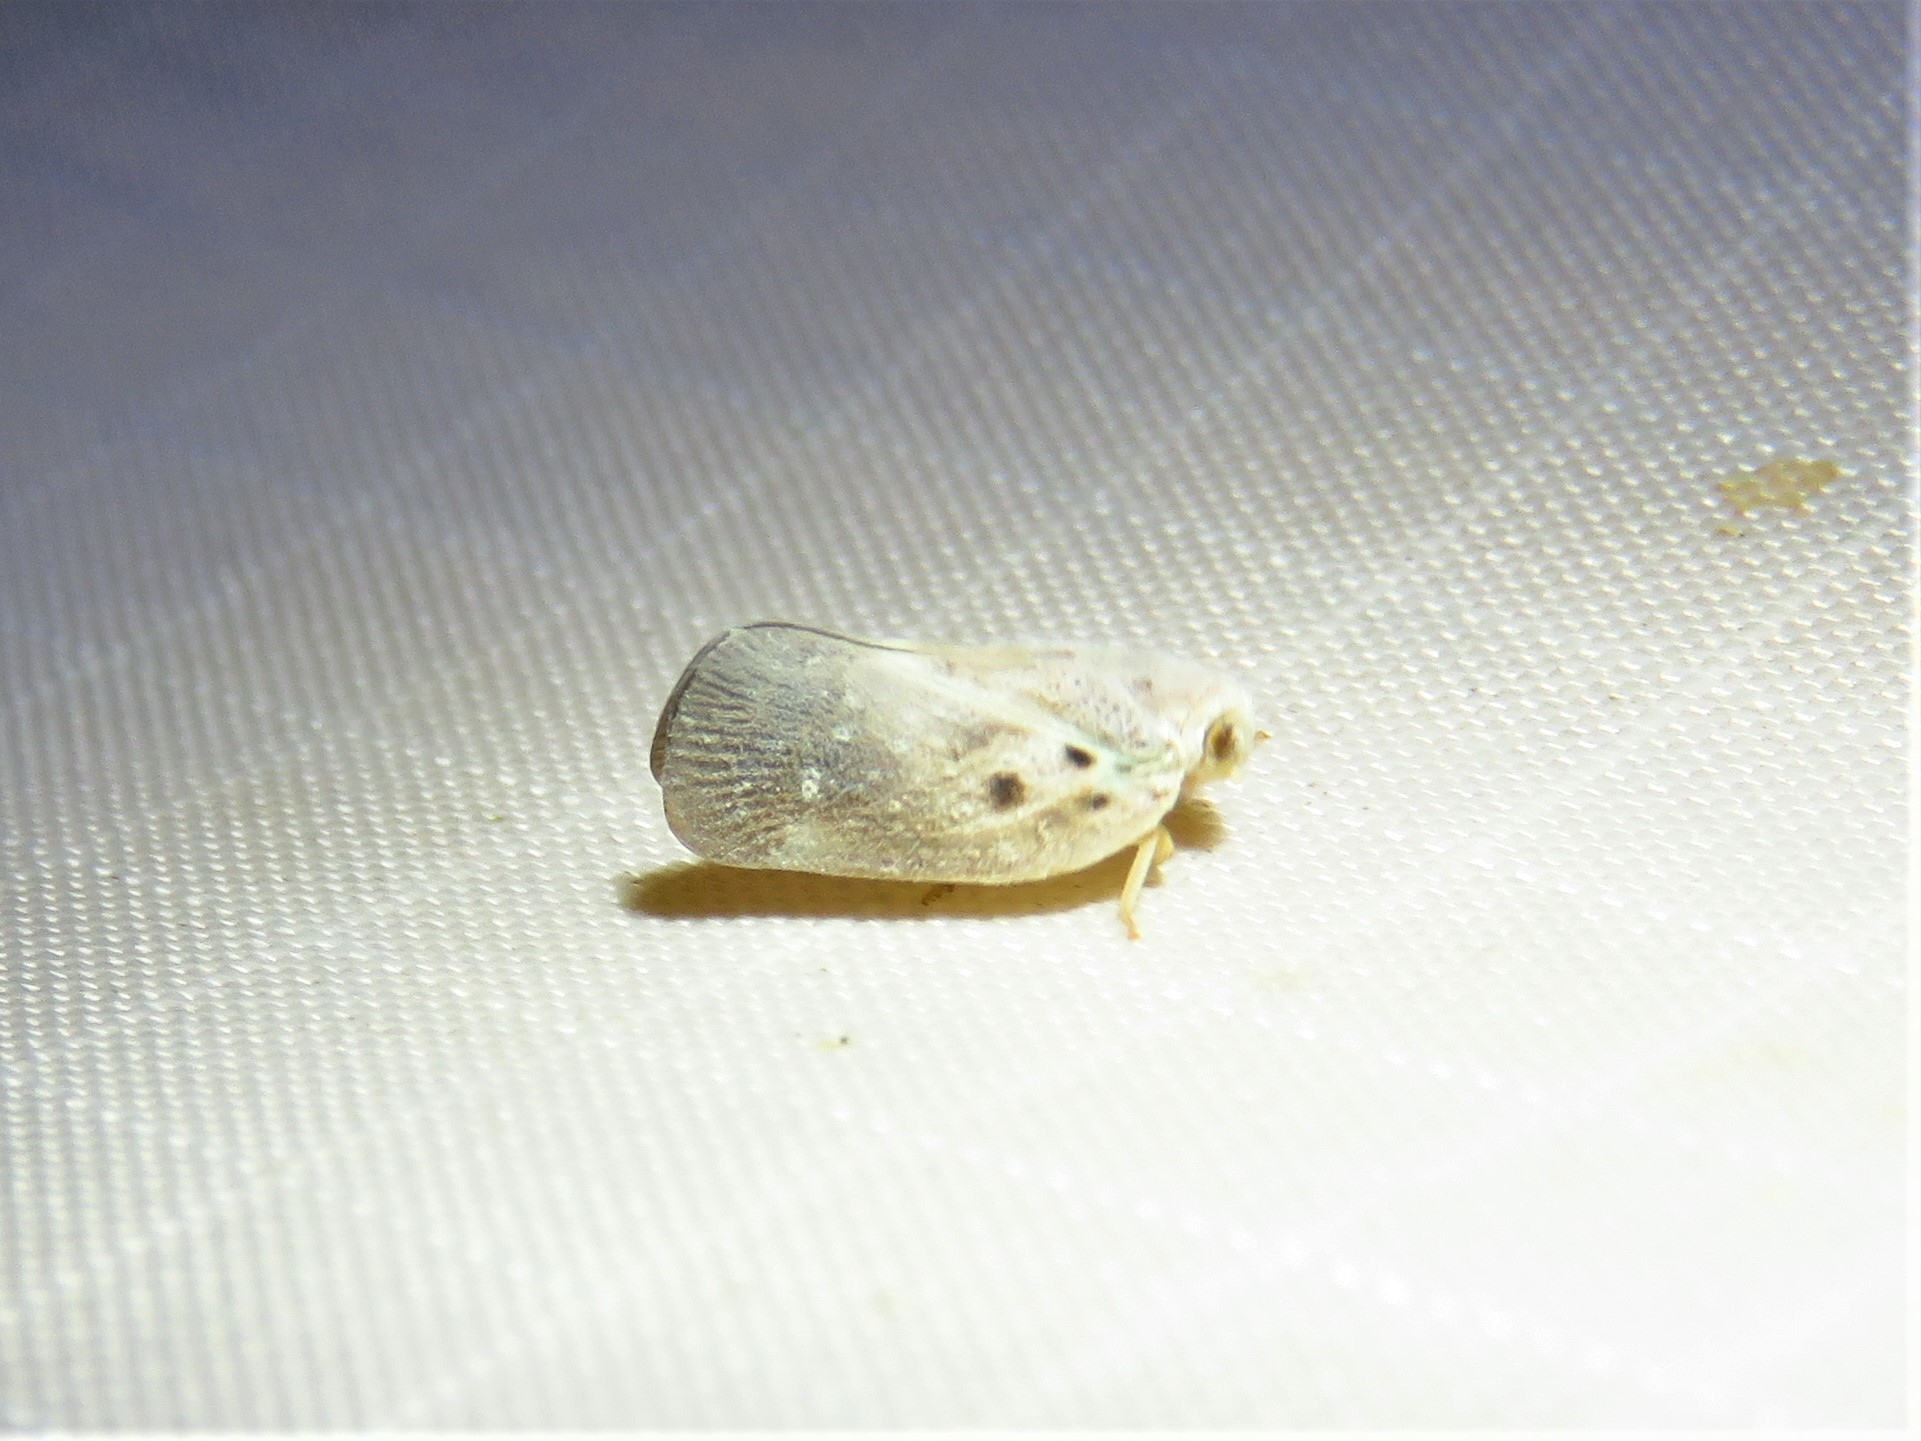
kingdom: Animalia
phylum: Arthropoda
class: Insecta
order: Hemiptera
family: Flatidae
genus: Metcalfa
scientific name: Metcalfa pruinosa
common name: Citrus flatid planthopper
